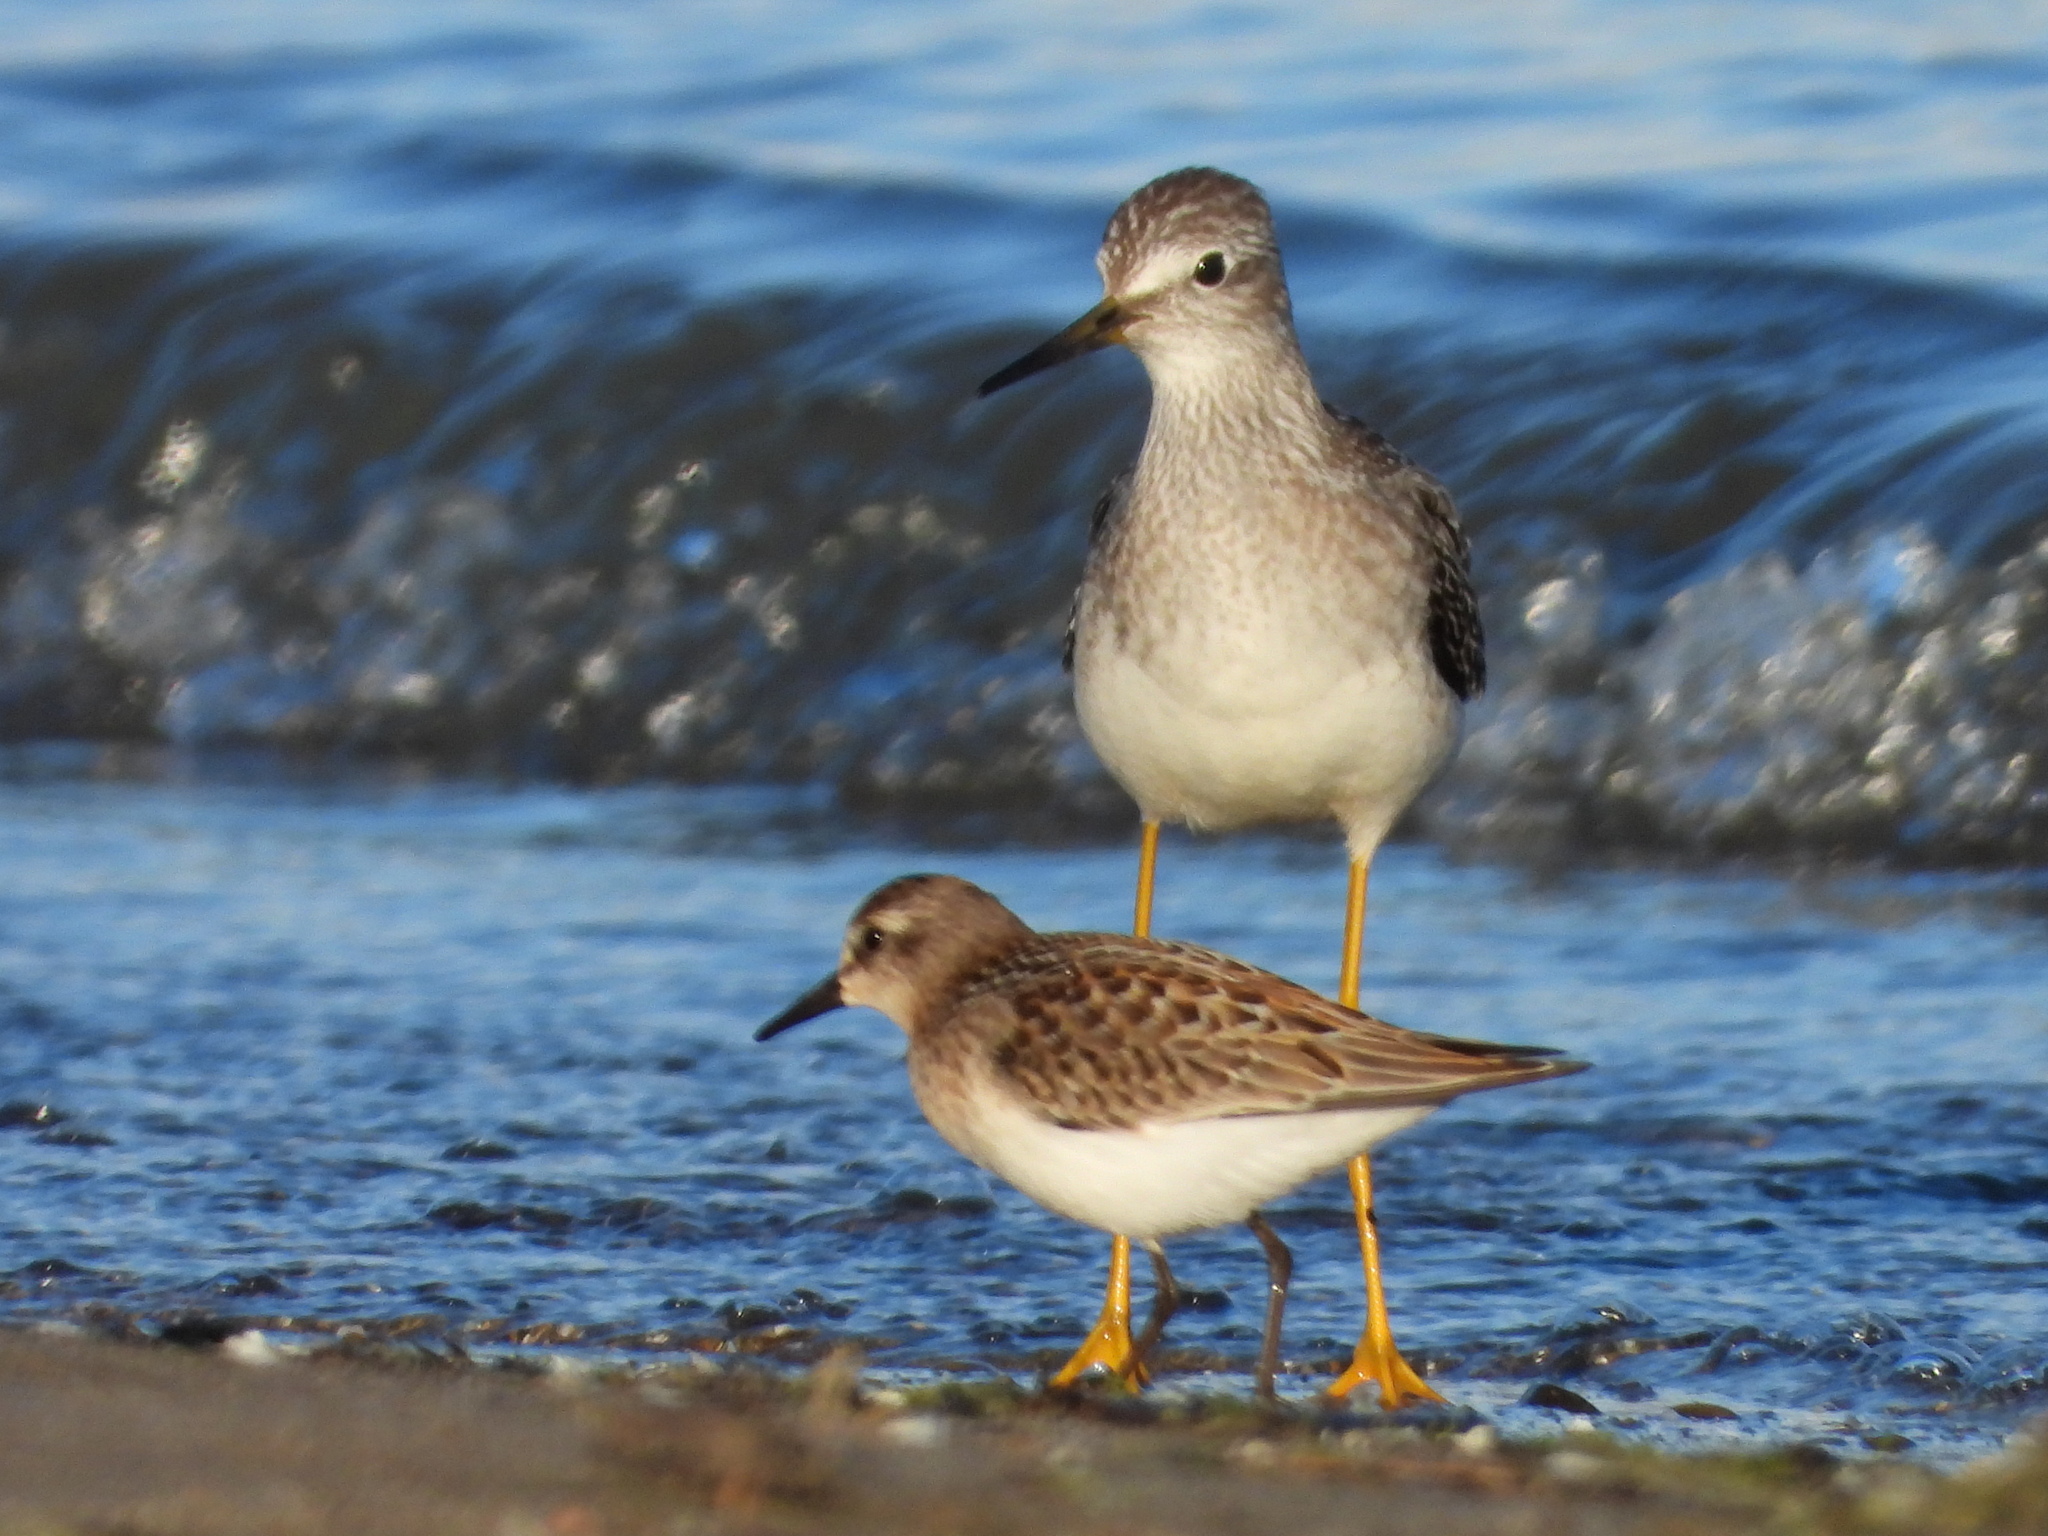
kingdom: Animalia
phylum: Chordata
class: Aves
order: Charadriiformes
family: Scolopacidae
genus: Tringa
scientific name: Tringa flavipes
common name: Lesser yellowlegs
